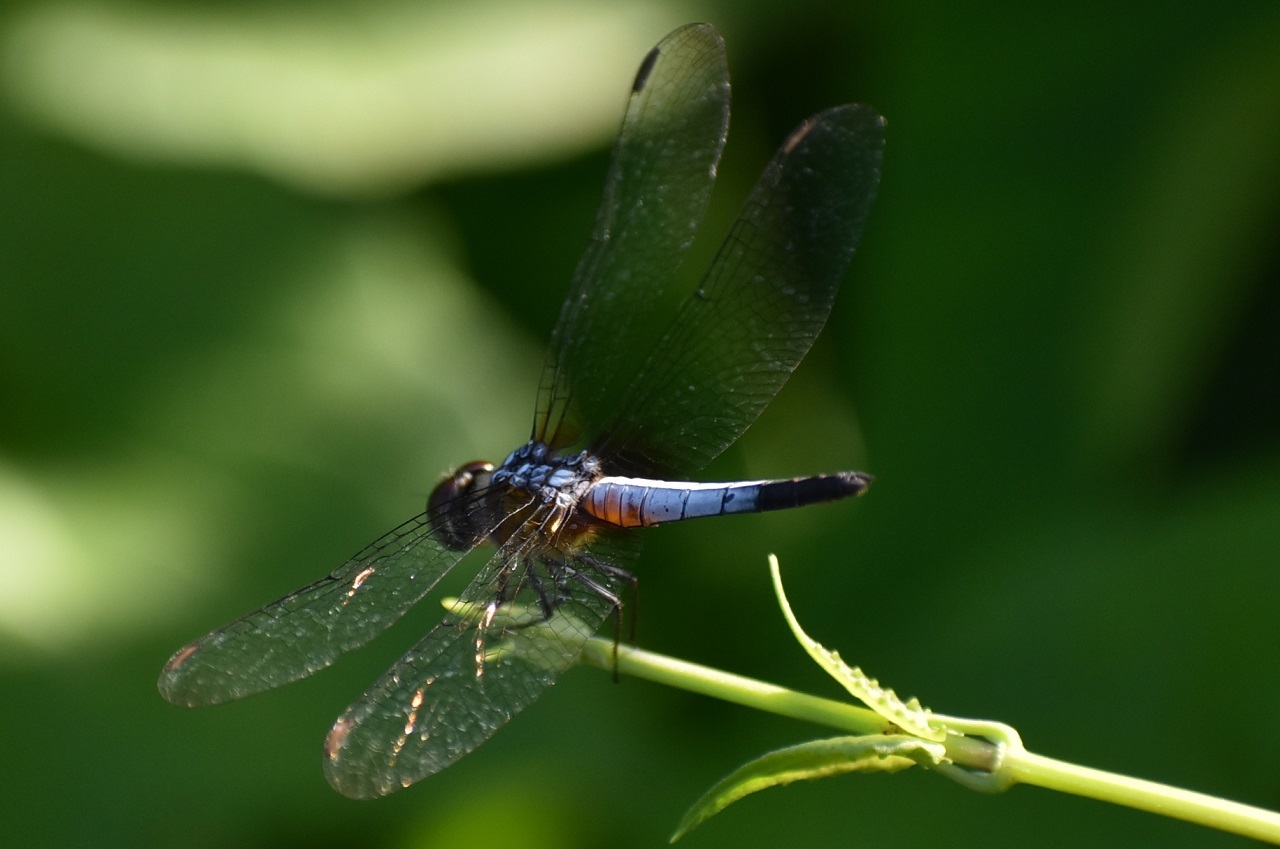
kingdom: Animalia
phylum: Arthropoda
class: Insecta
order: Odonata
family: Libellulidae
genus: Brachydiplax
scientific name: Brachydiplax chalybea
